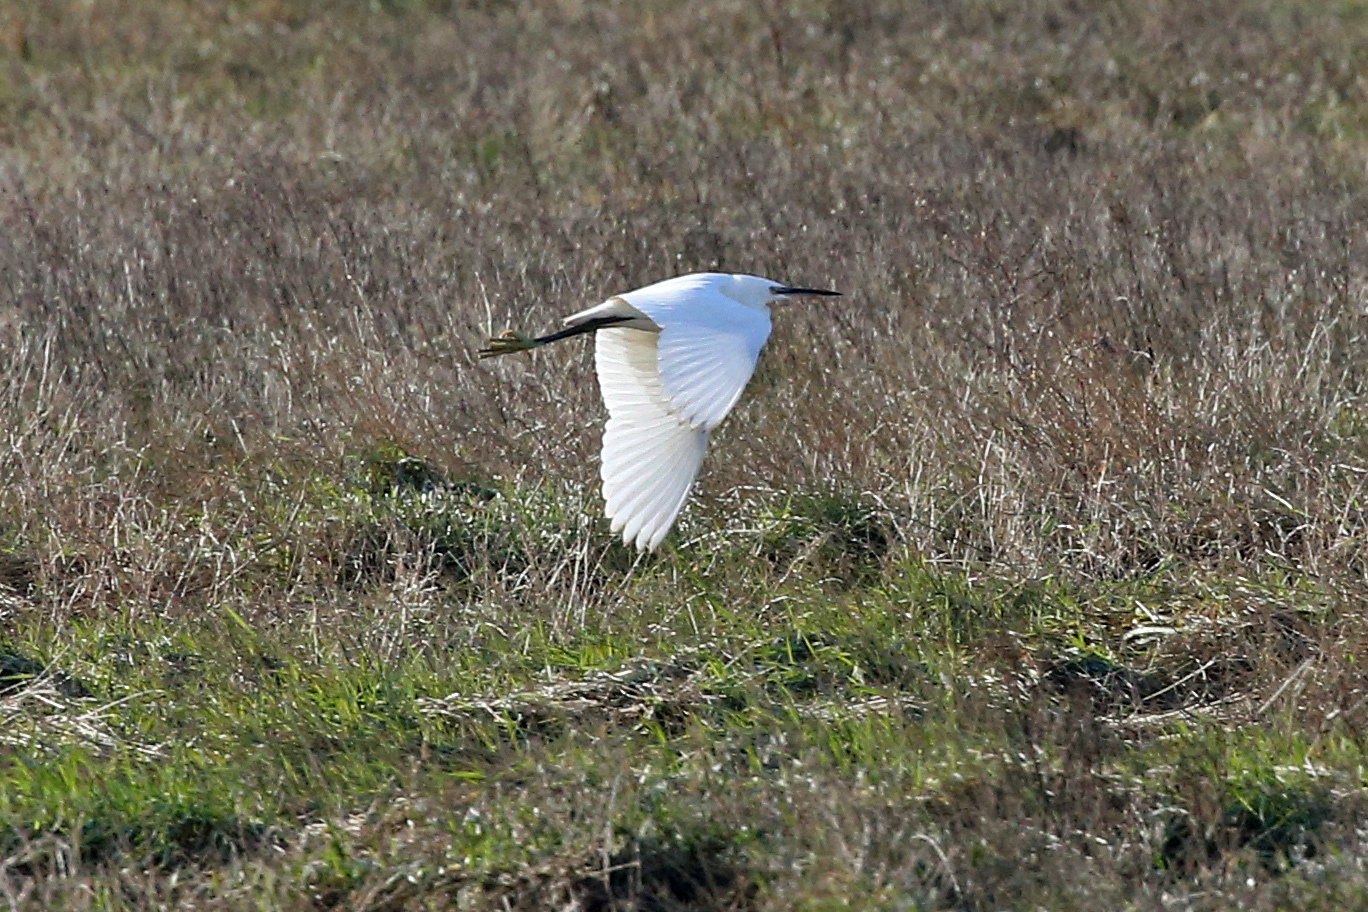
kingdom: Animalia
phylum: Chordata
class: Aves
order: Pelecaniformes
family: Ardeidae
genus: Egretta
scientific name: Egretta garzetta
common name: Little egret
